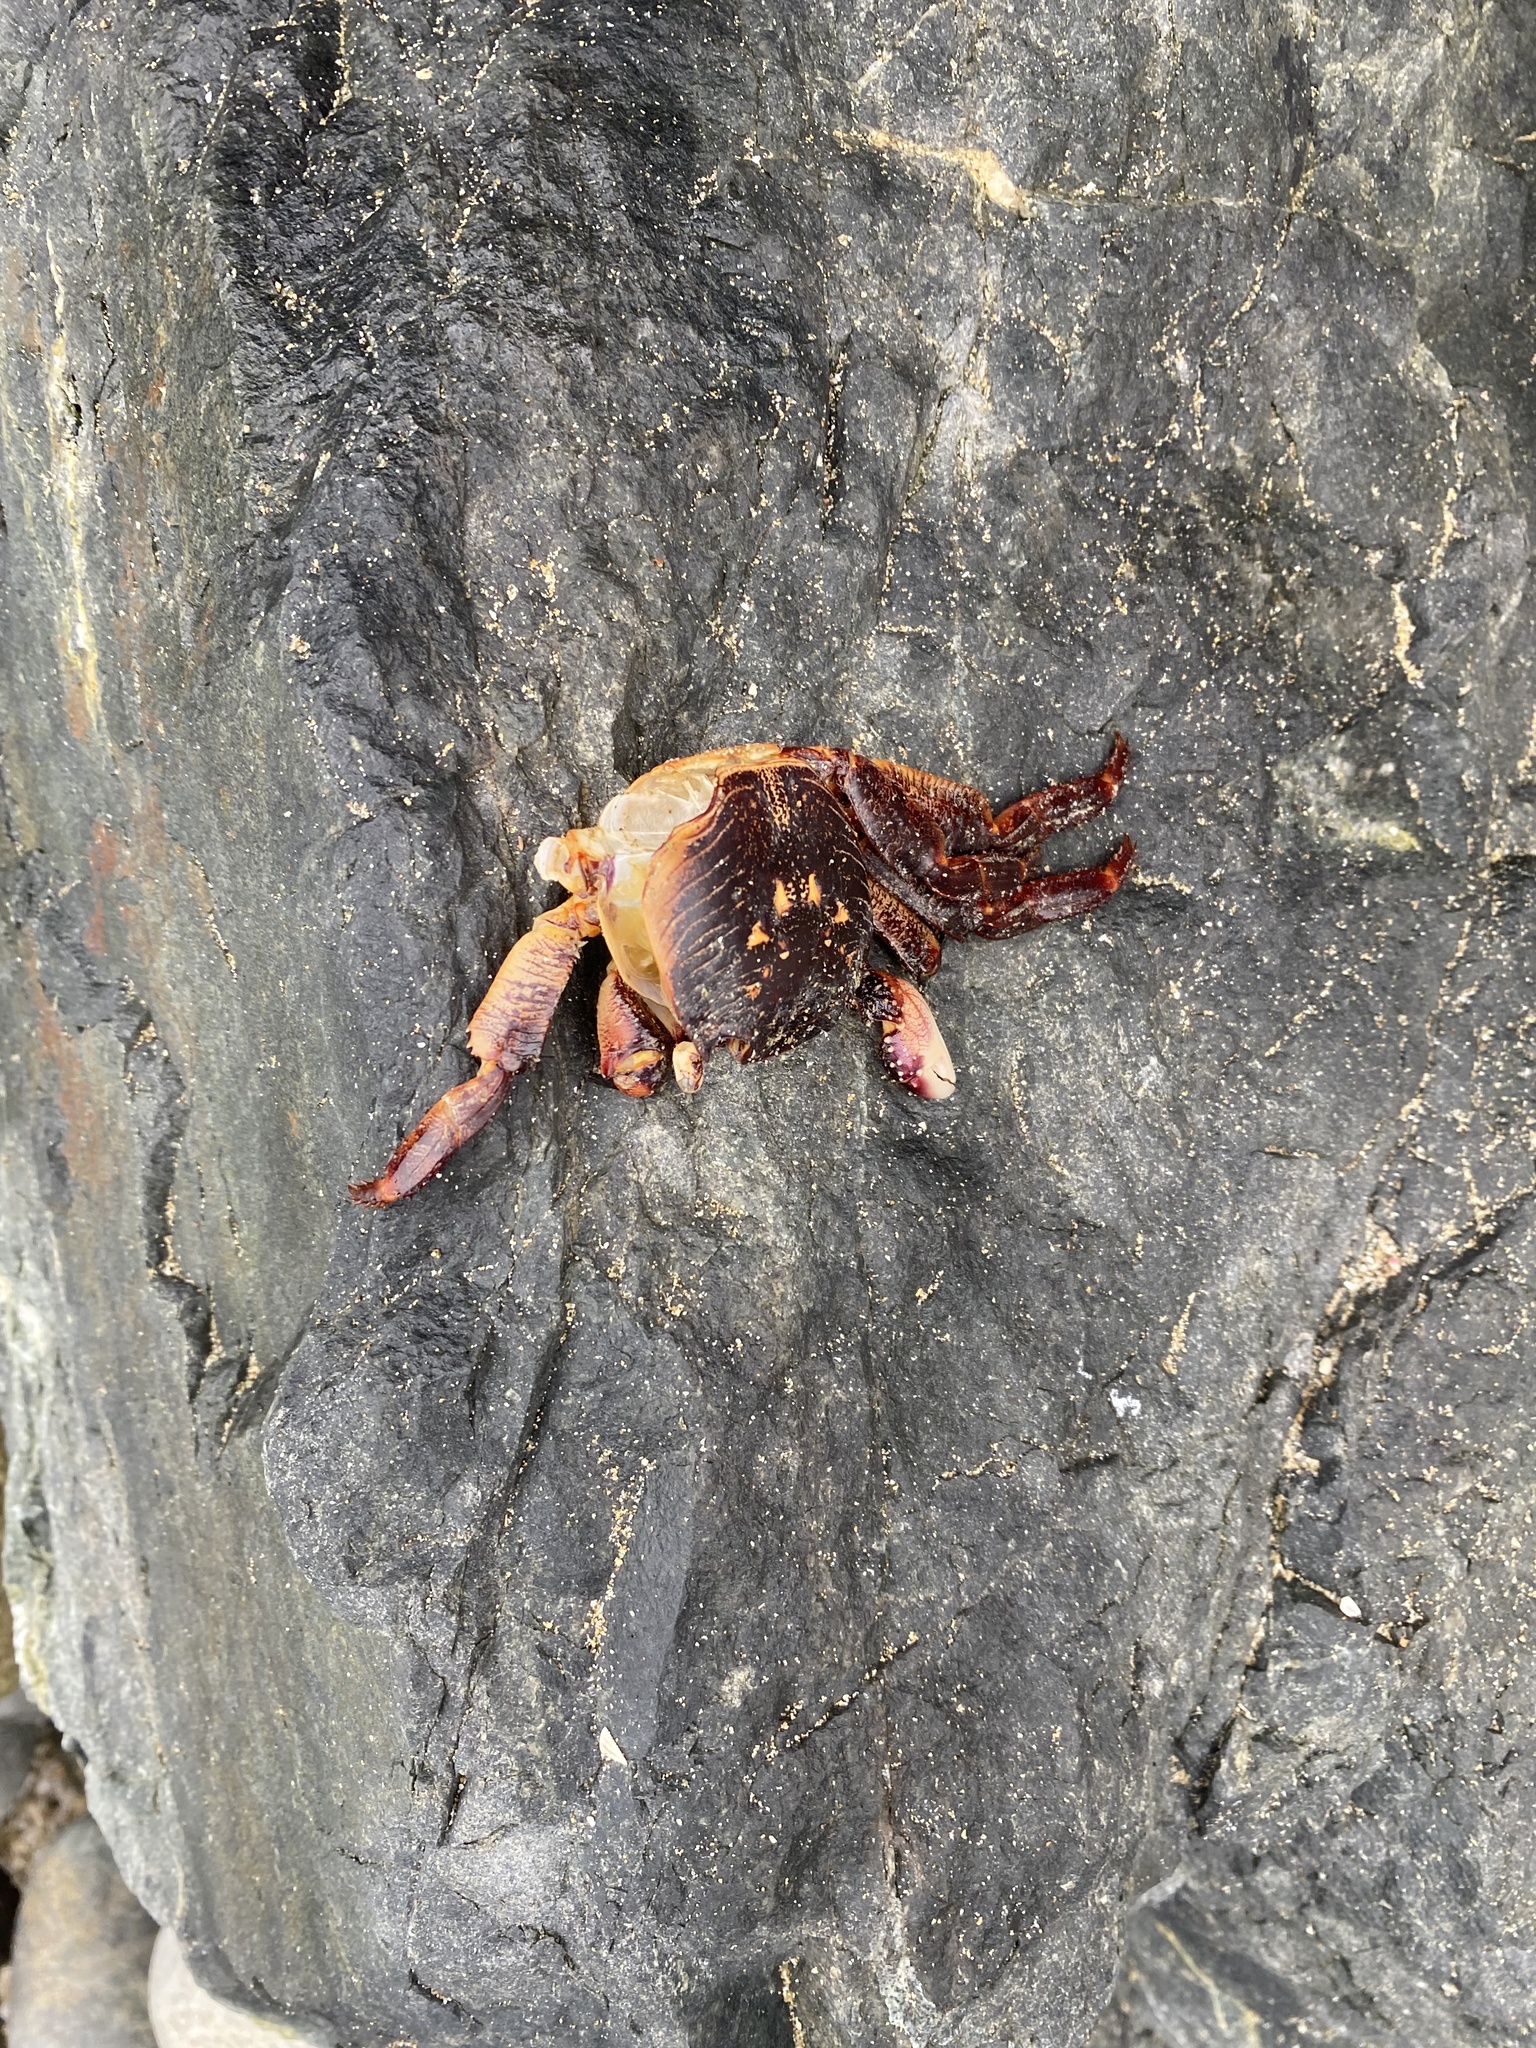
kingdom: Animalia
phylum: Arthropoda
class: Malacostraca
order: Decapoda
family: Grapsidae
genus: Leptograpsus
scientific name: Leptograpsus variegatus
